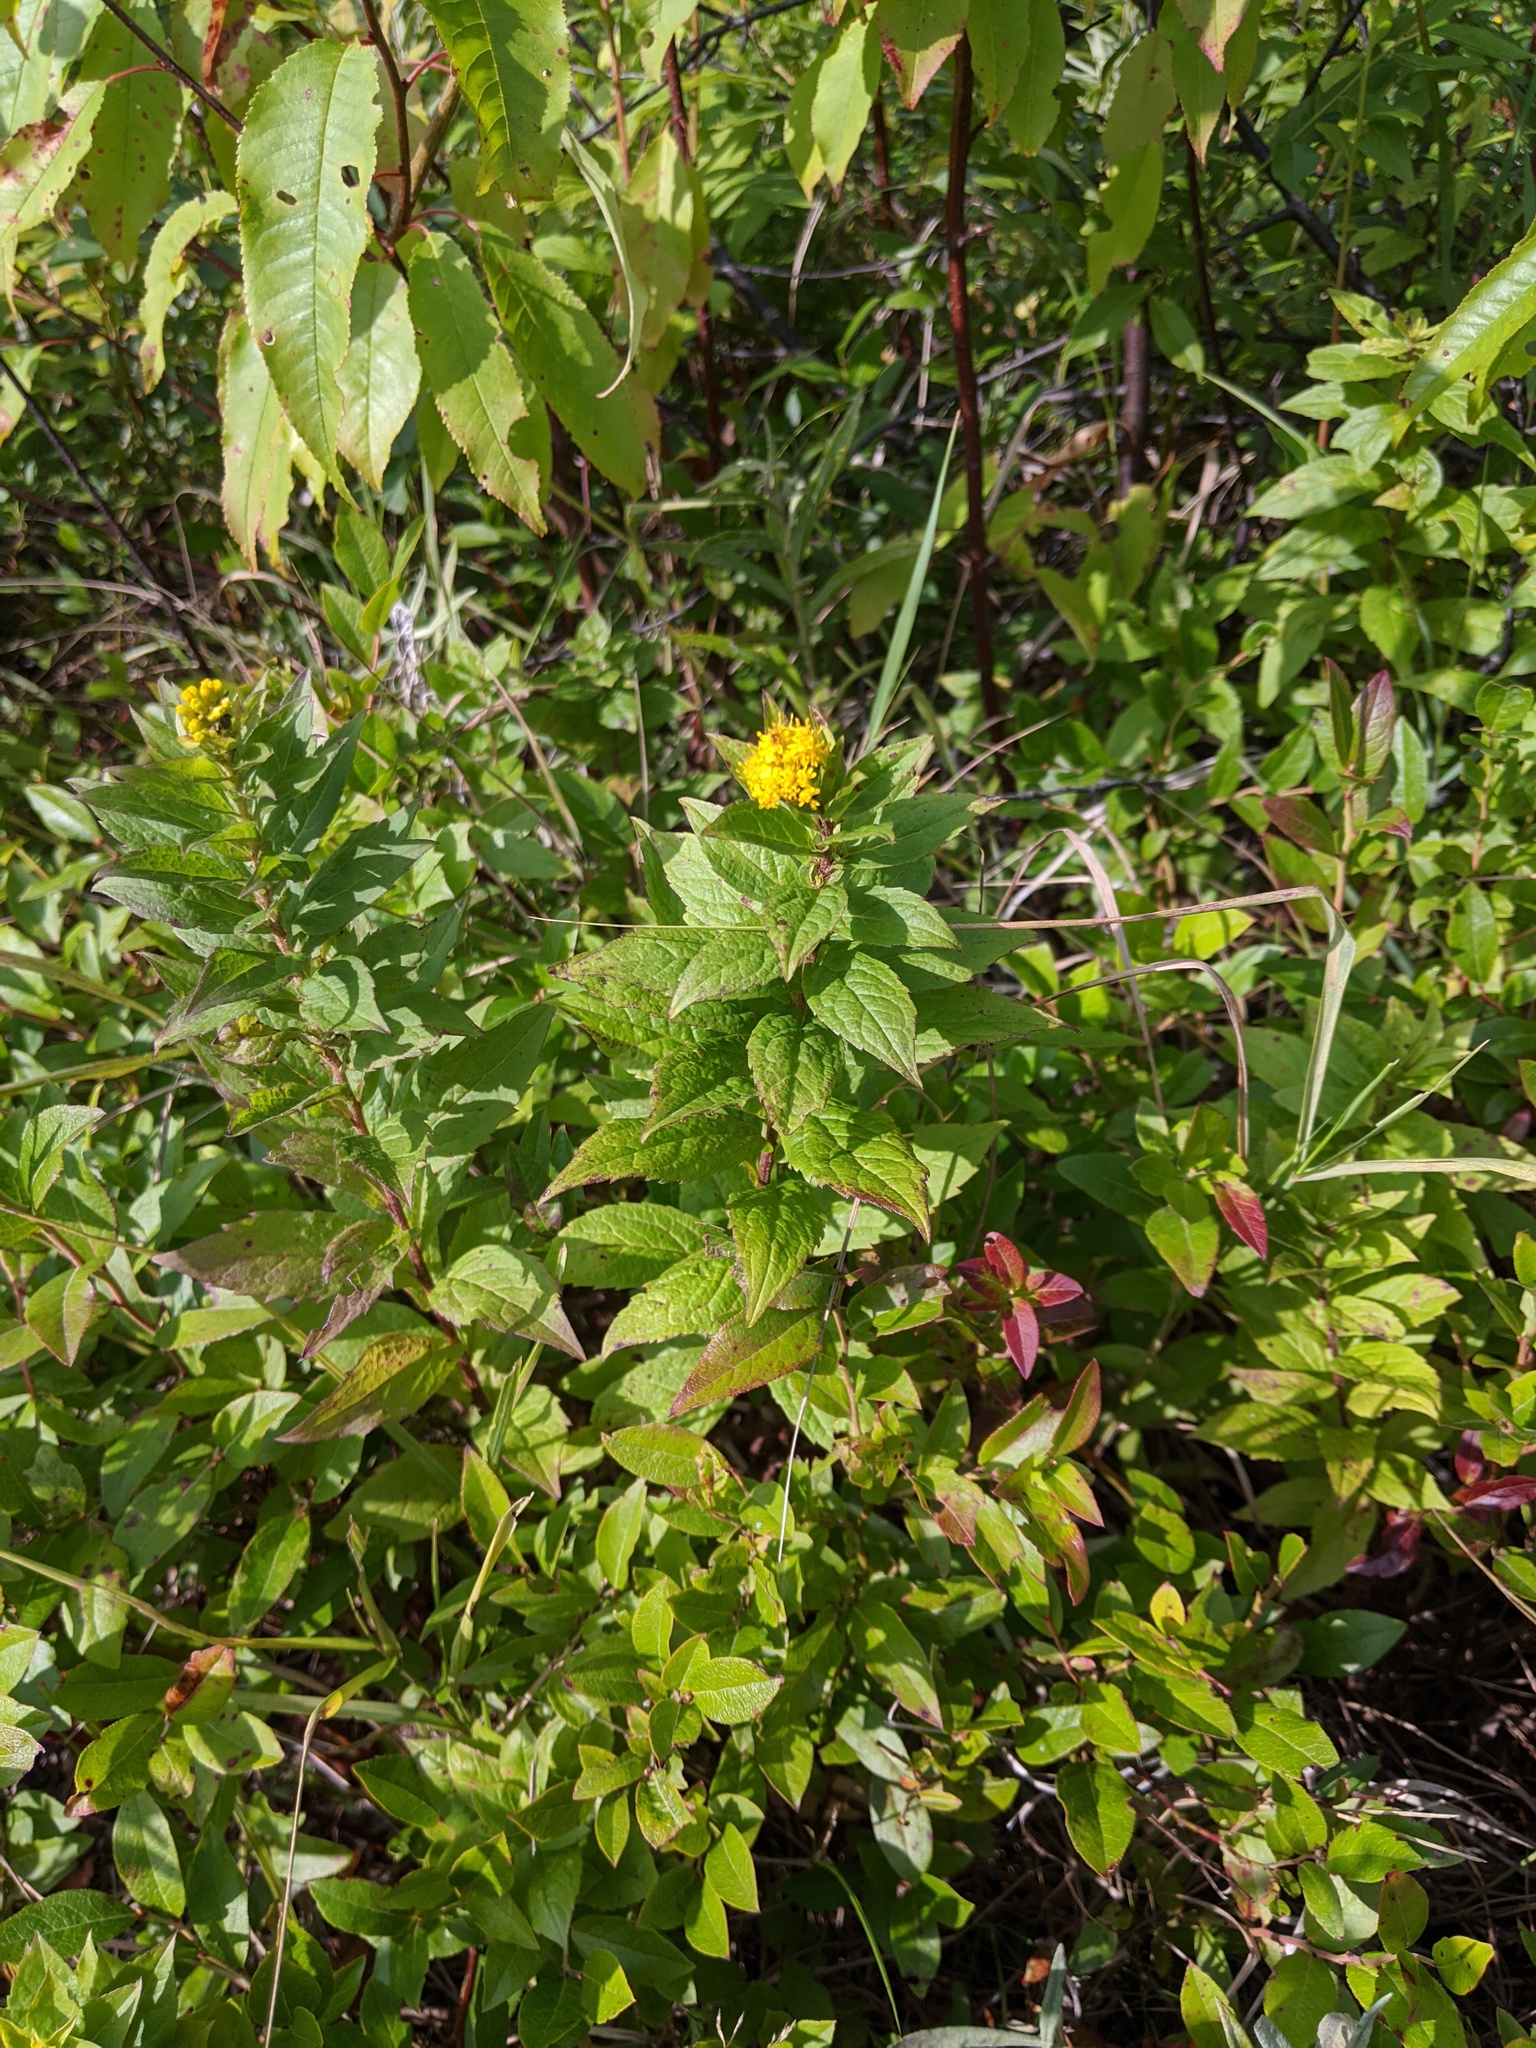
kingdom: Plantae
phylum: Tracheophyta
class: Magnoliopsida
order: Asterales
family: Asteraceae
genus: Solidago
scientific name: Solidago rugosa
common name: Rough-stemmed goldenrod
